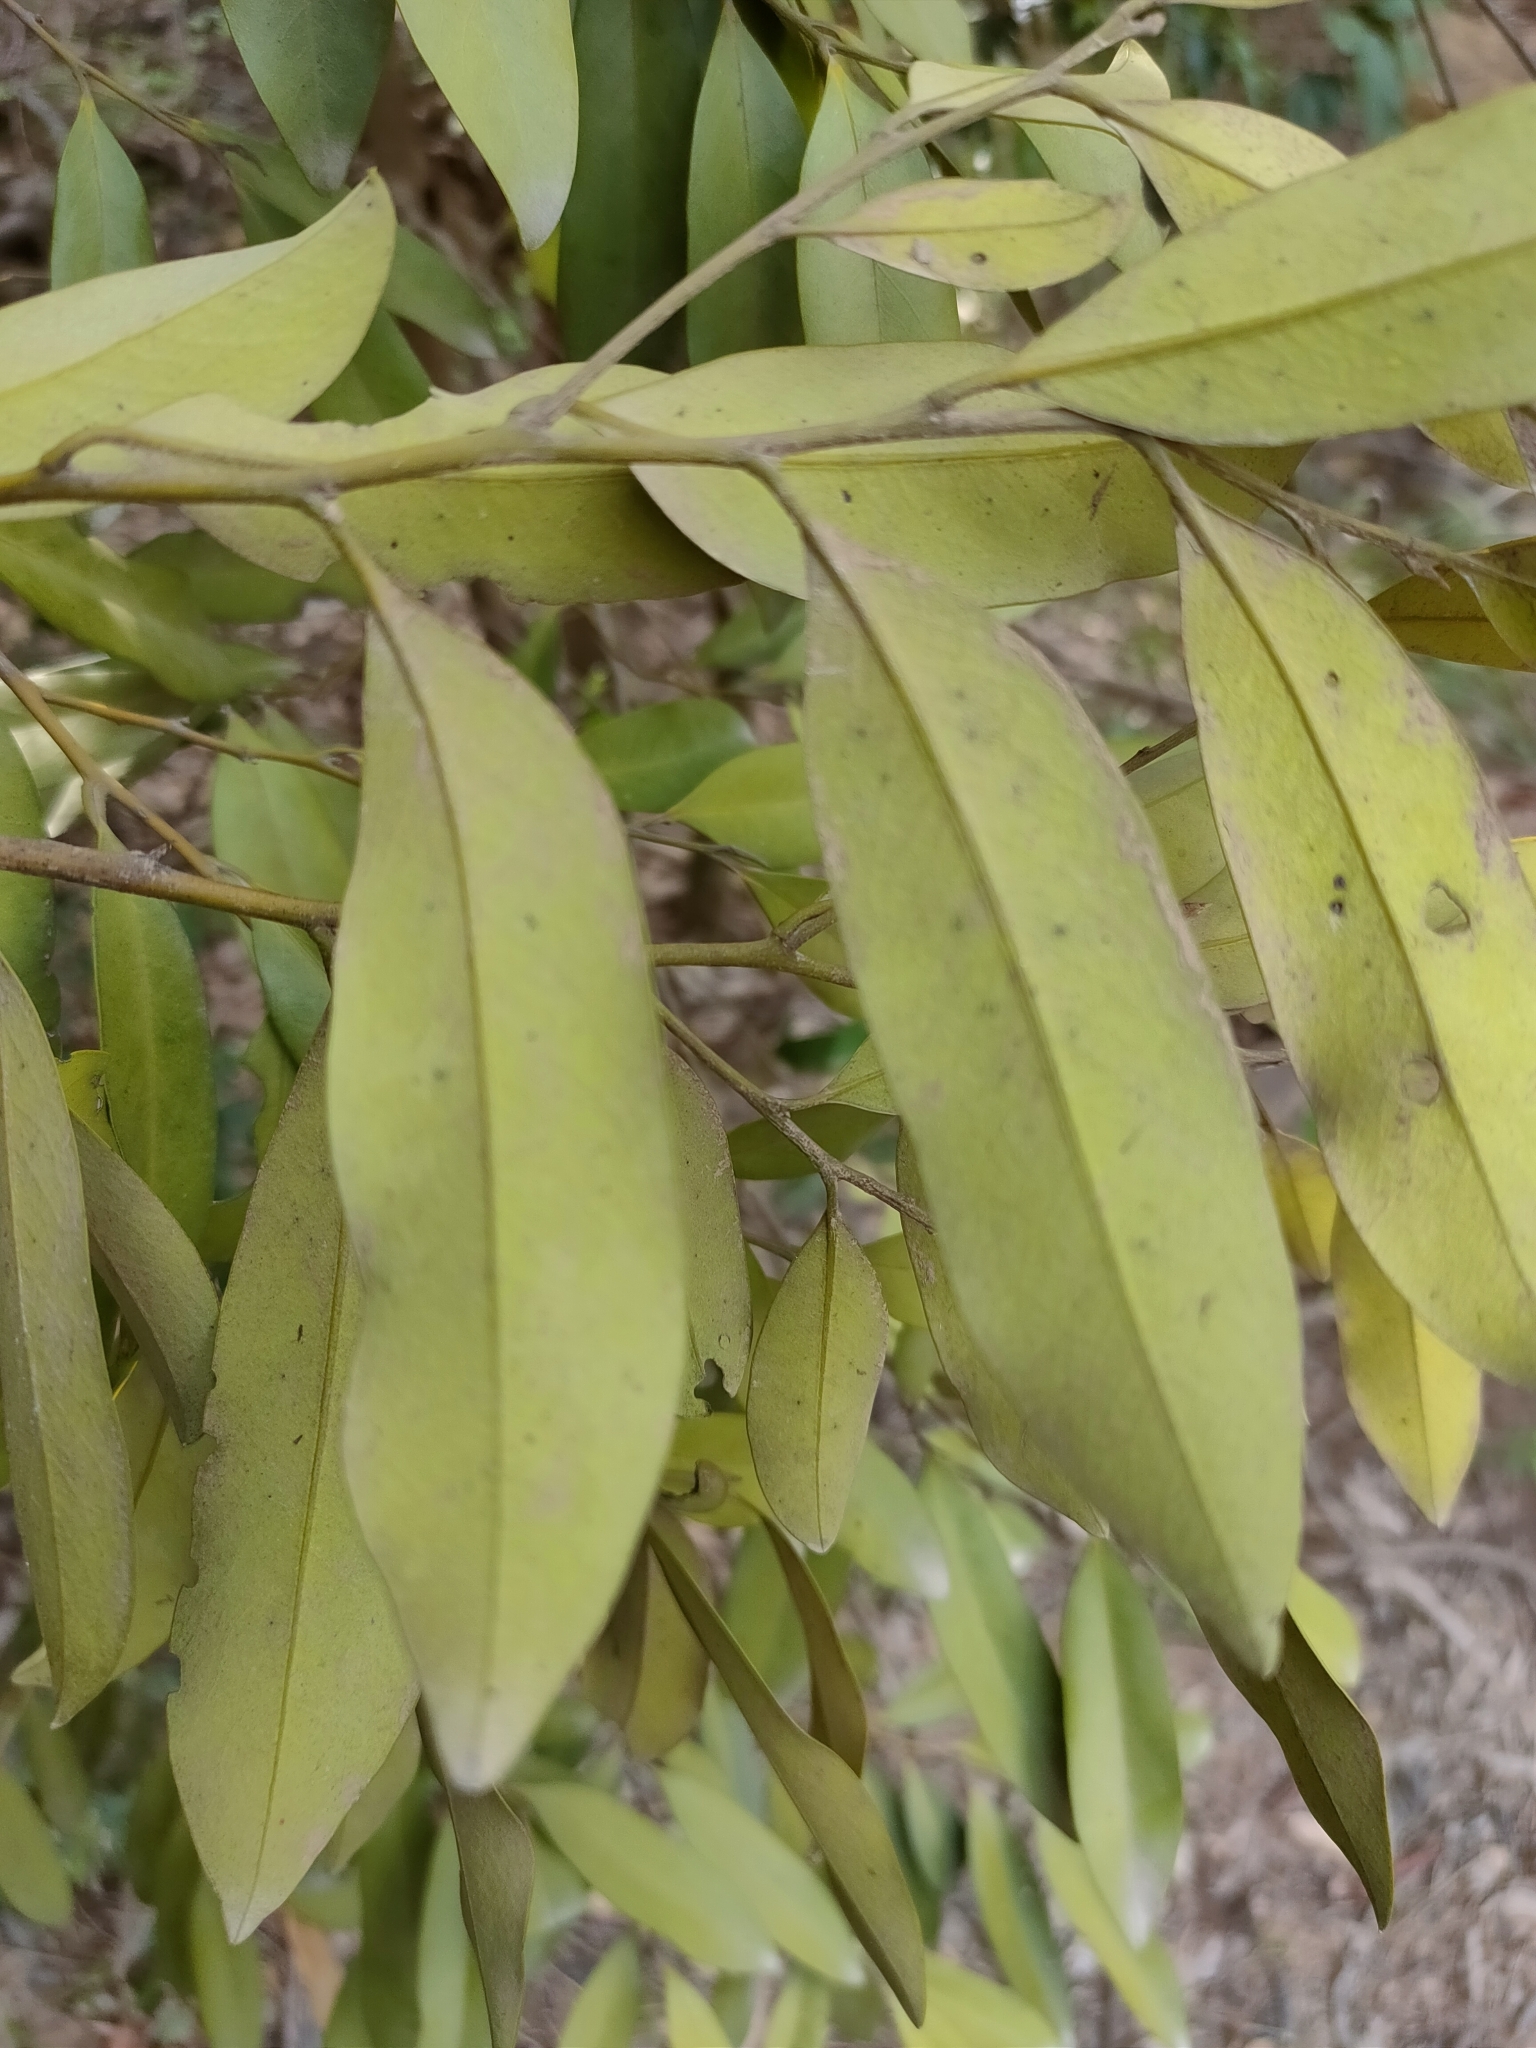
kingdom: Plantae
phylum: Tracheophyta
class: Magnoliopsida
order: Ericales
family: Ebenaceae
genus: Diospyros
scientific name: Diospyros australis
